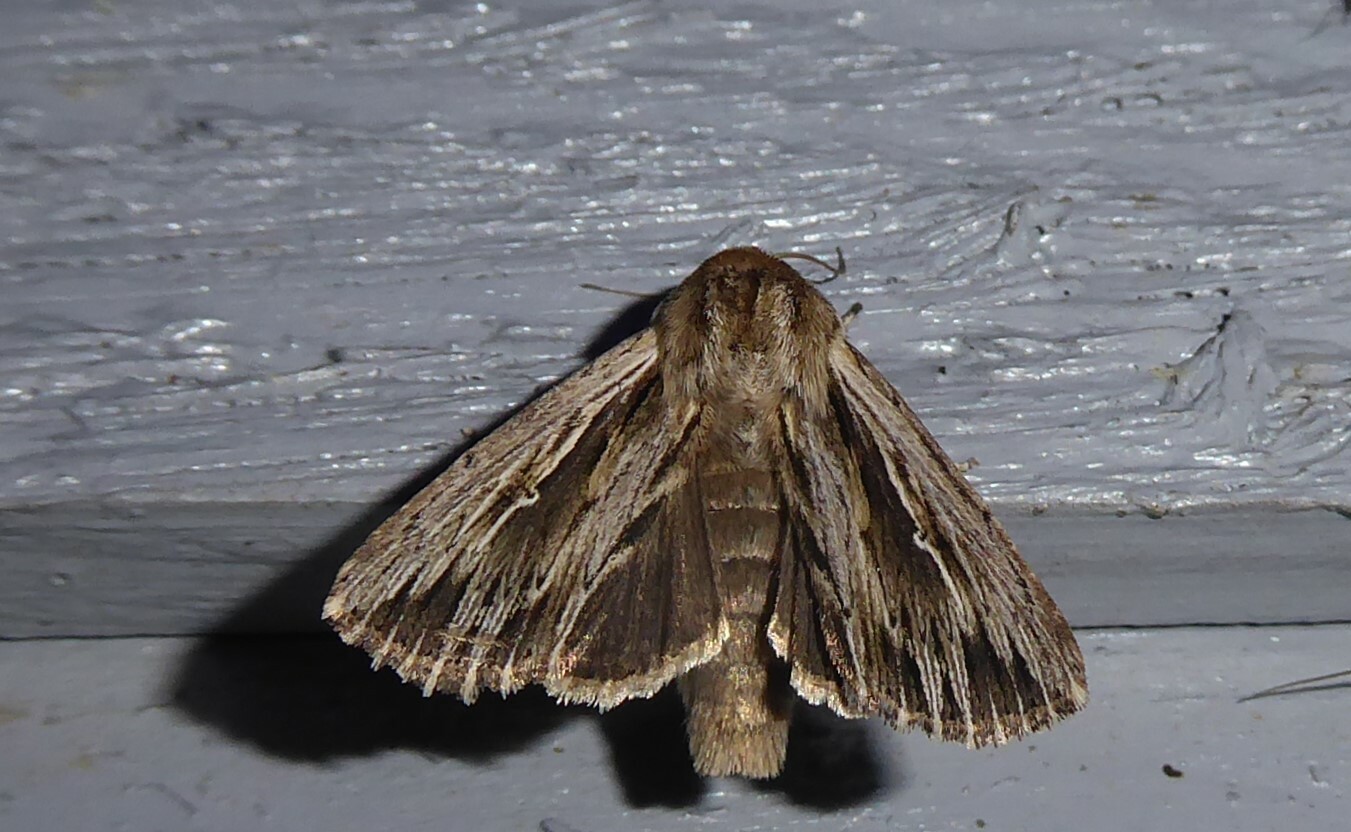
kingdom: Animalia
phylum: Arthropoda
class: Insecta
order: Lepidoptera
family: Noctuidae
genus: Persectania
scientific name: Persectania aversa
